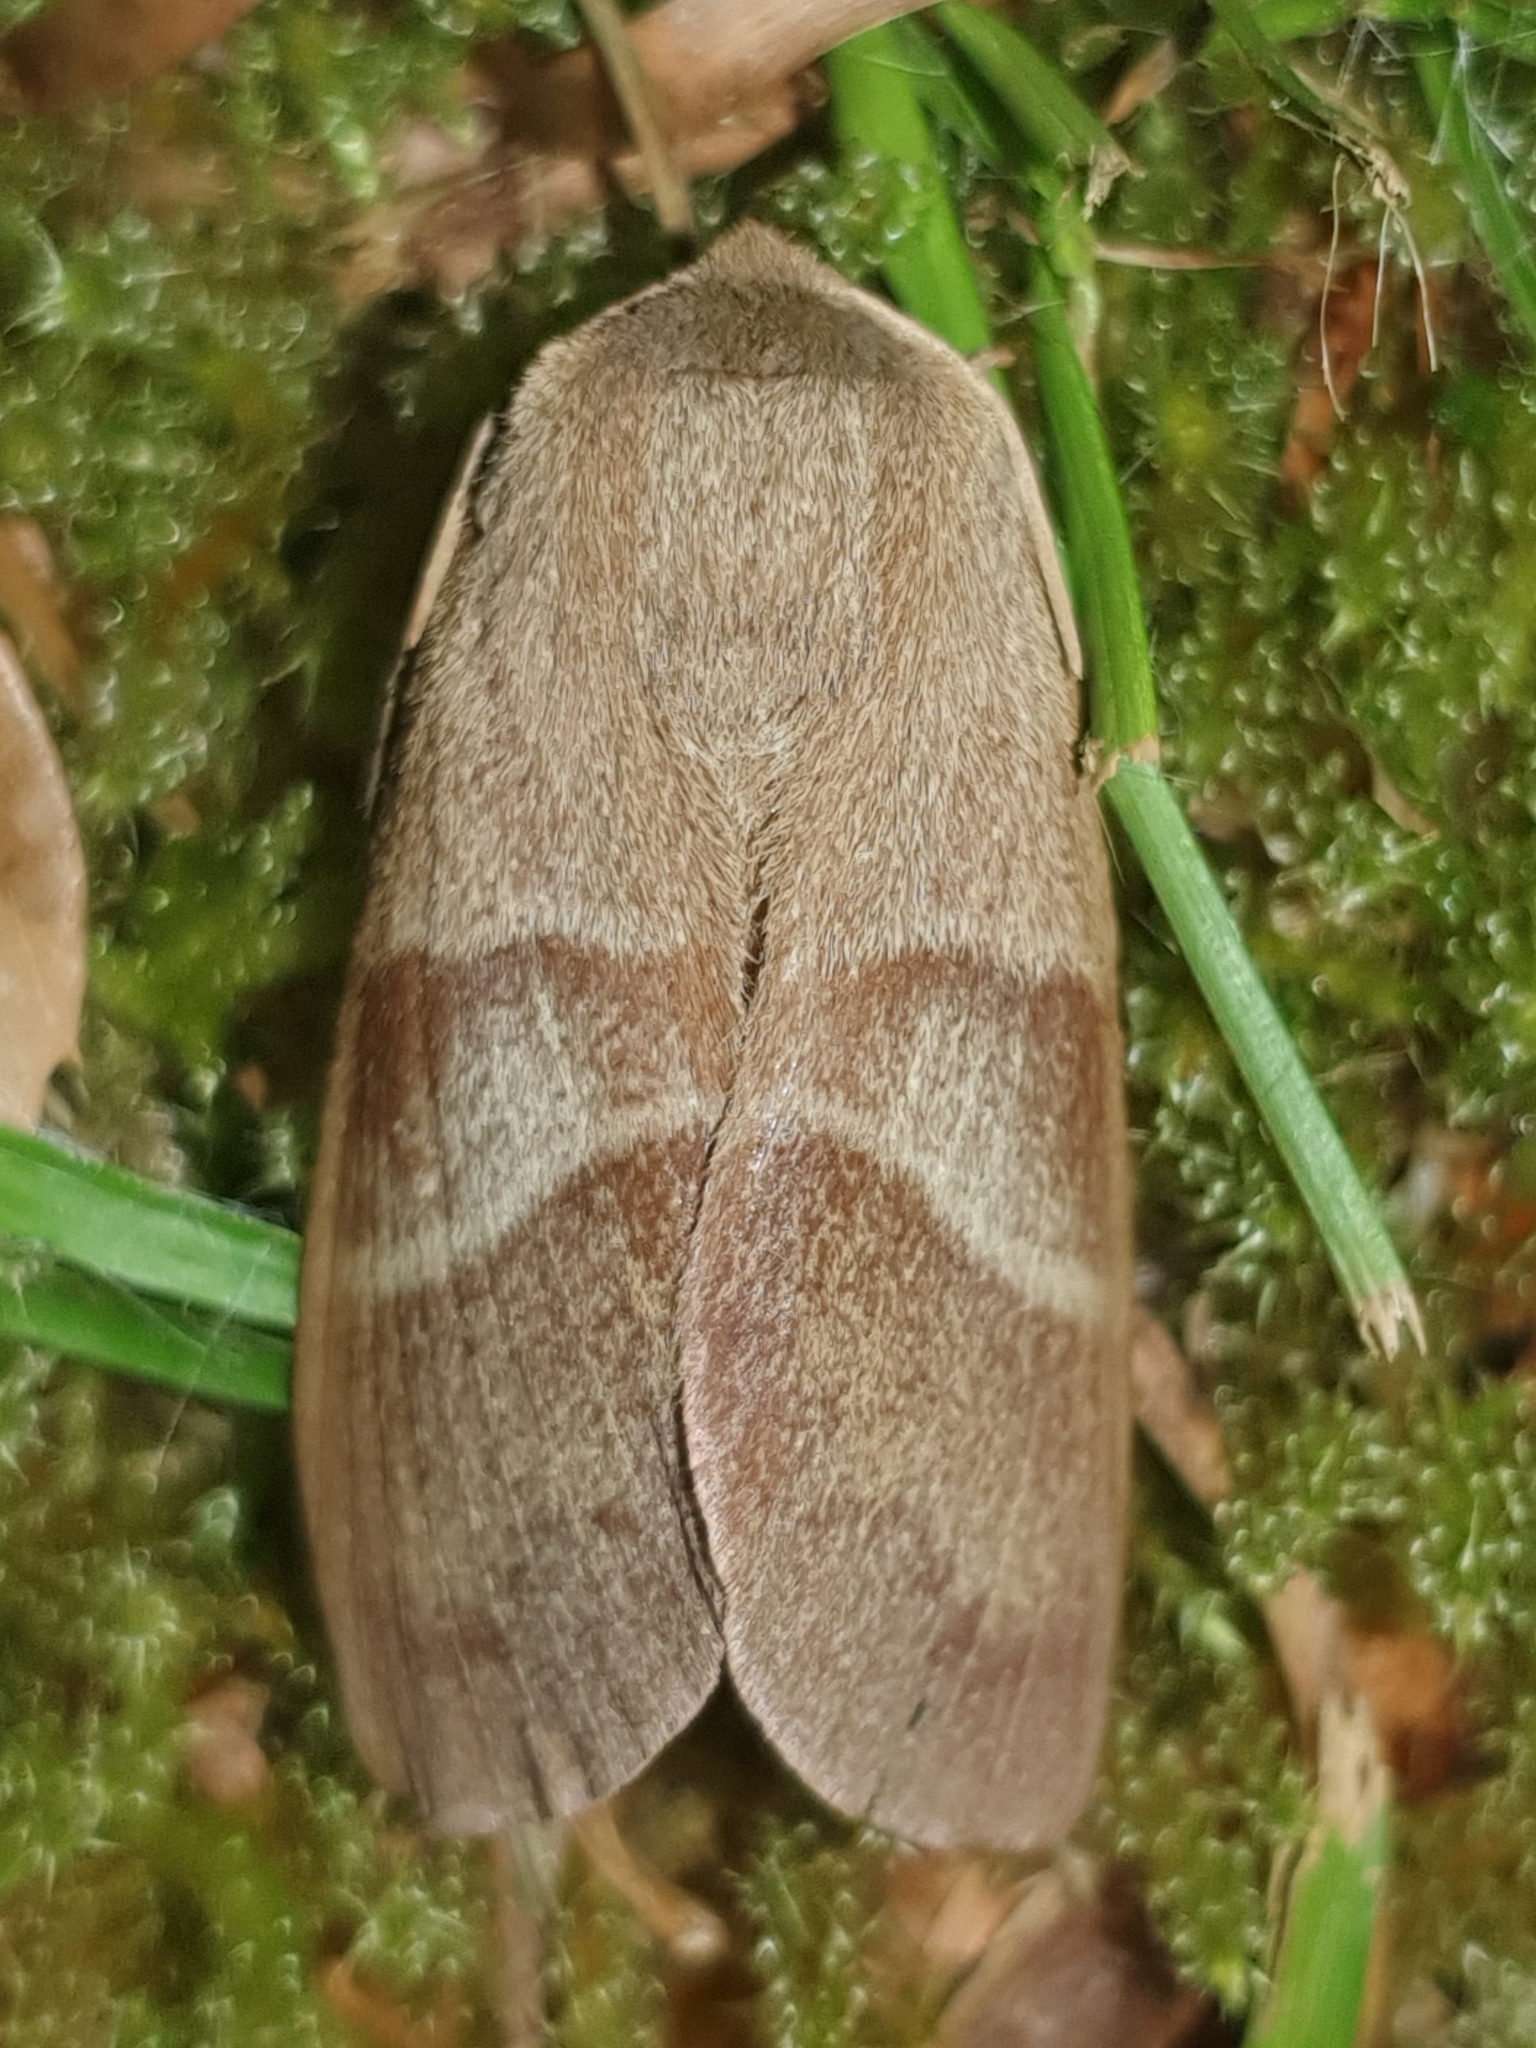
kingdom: Animalia
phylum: Arthropoda
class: Insecta
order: Lepidoptera
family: Lasiocampidae
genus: Macrothylacia
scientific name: Macrothylacia rubi
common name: Fox moth
